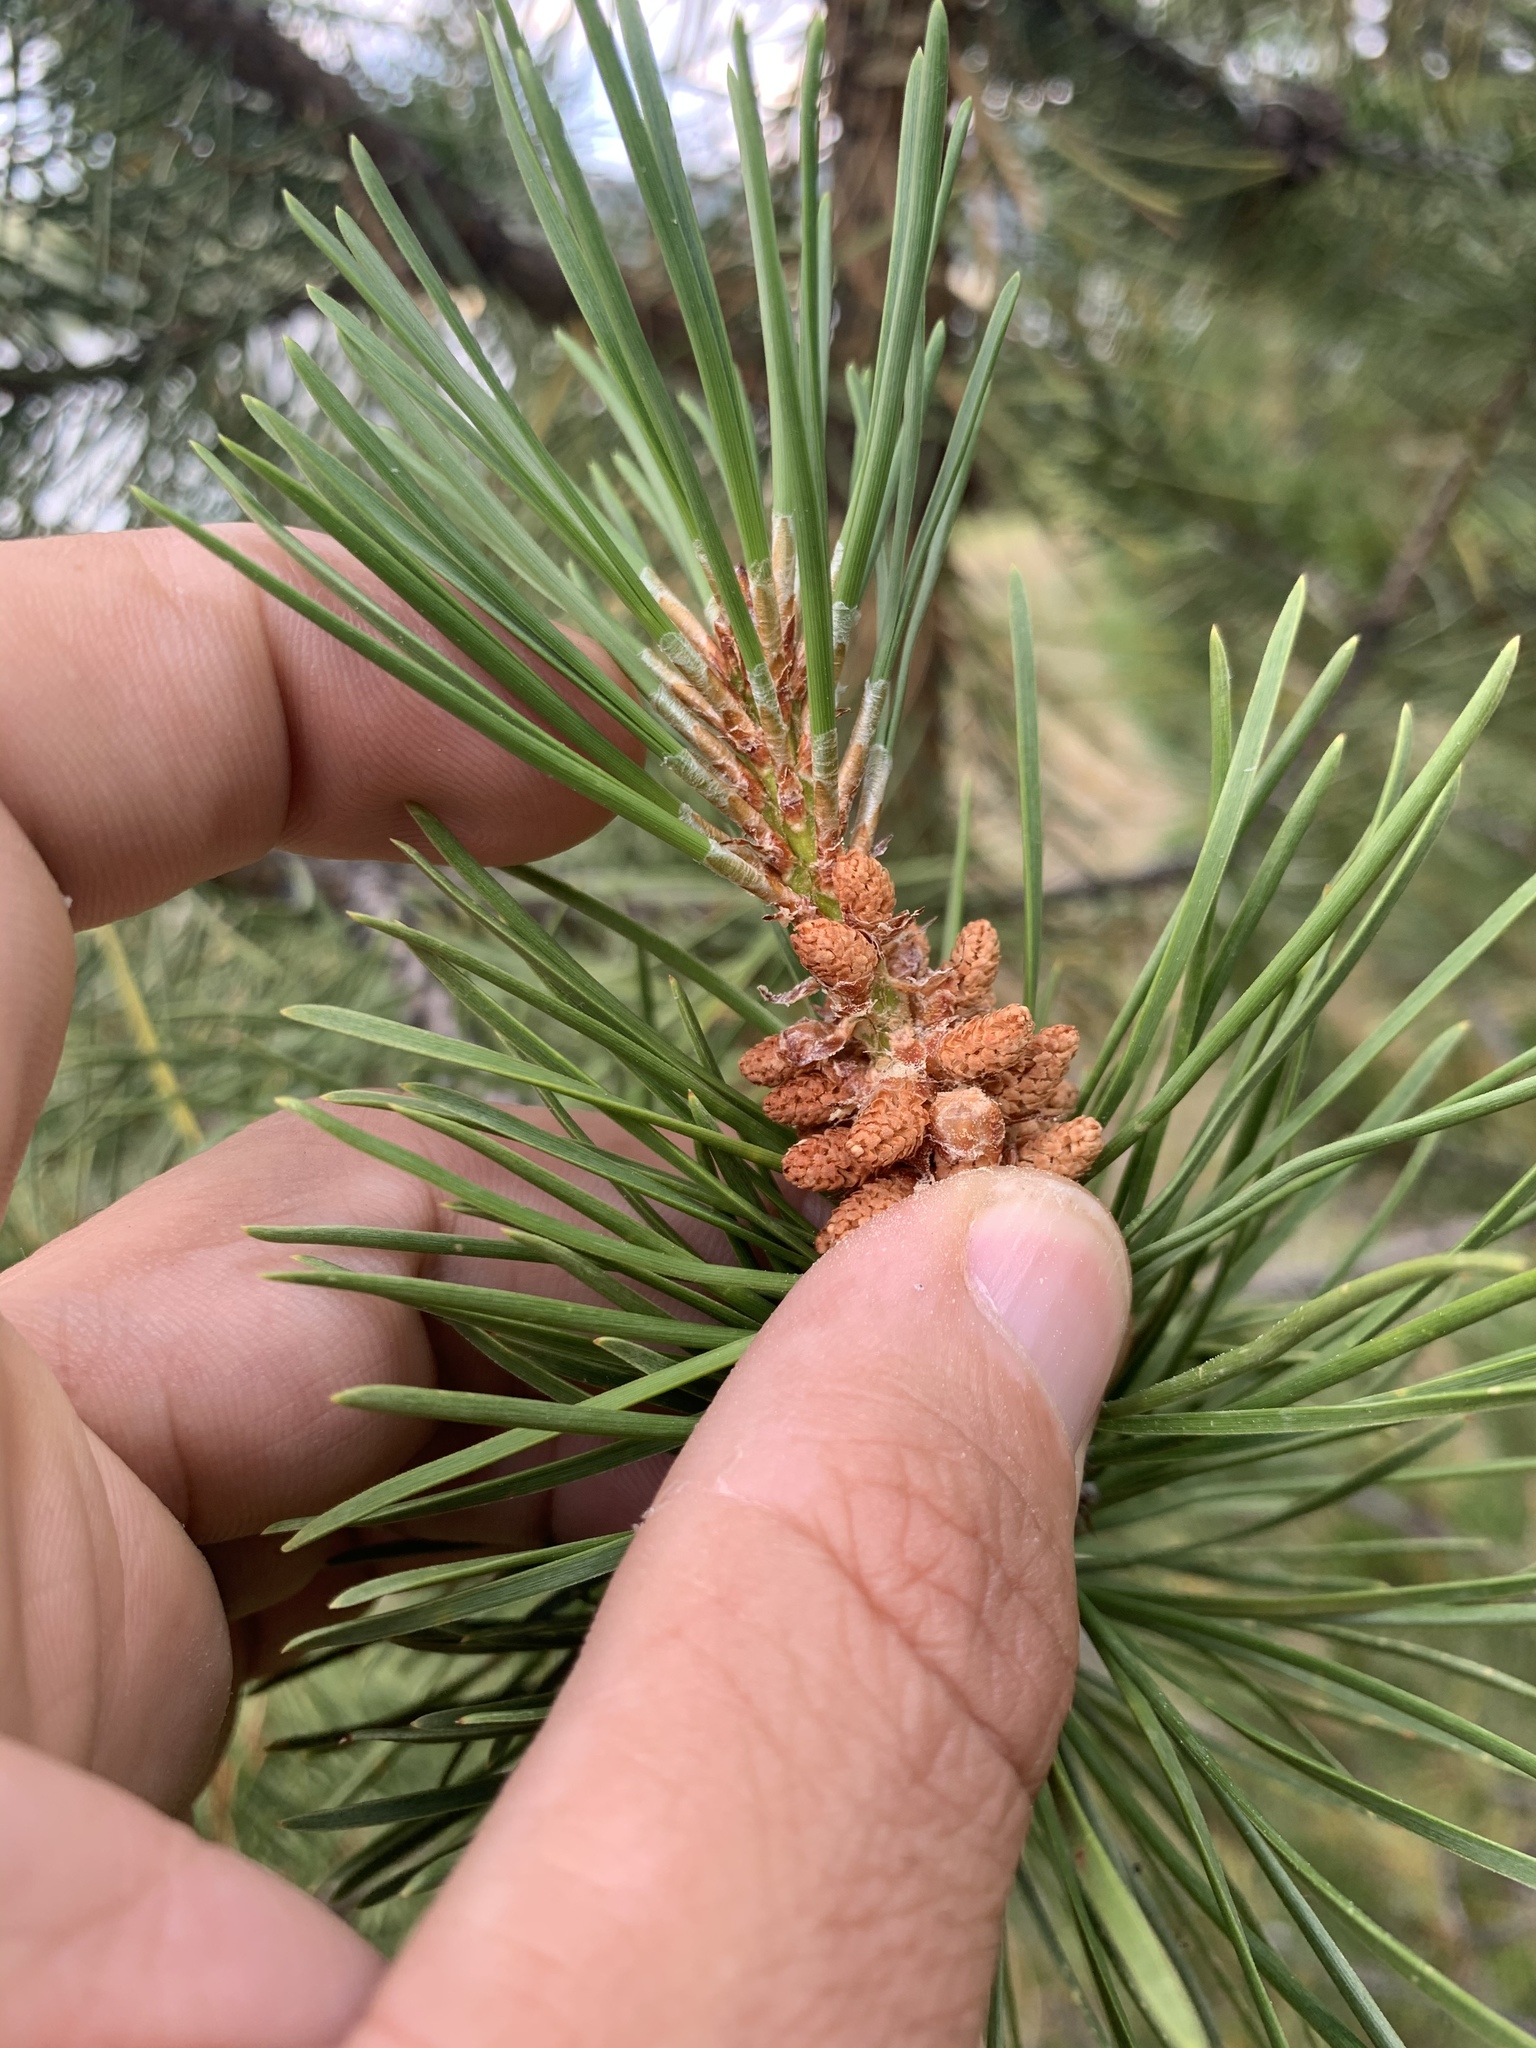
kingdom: Plantae
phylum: Tracheophyta
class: Pinopsida
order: Pinales
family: Pinaceae
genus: Pinus
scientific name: Pinus contorta
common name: Lodgepole pine
